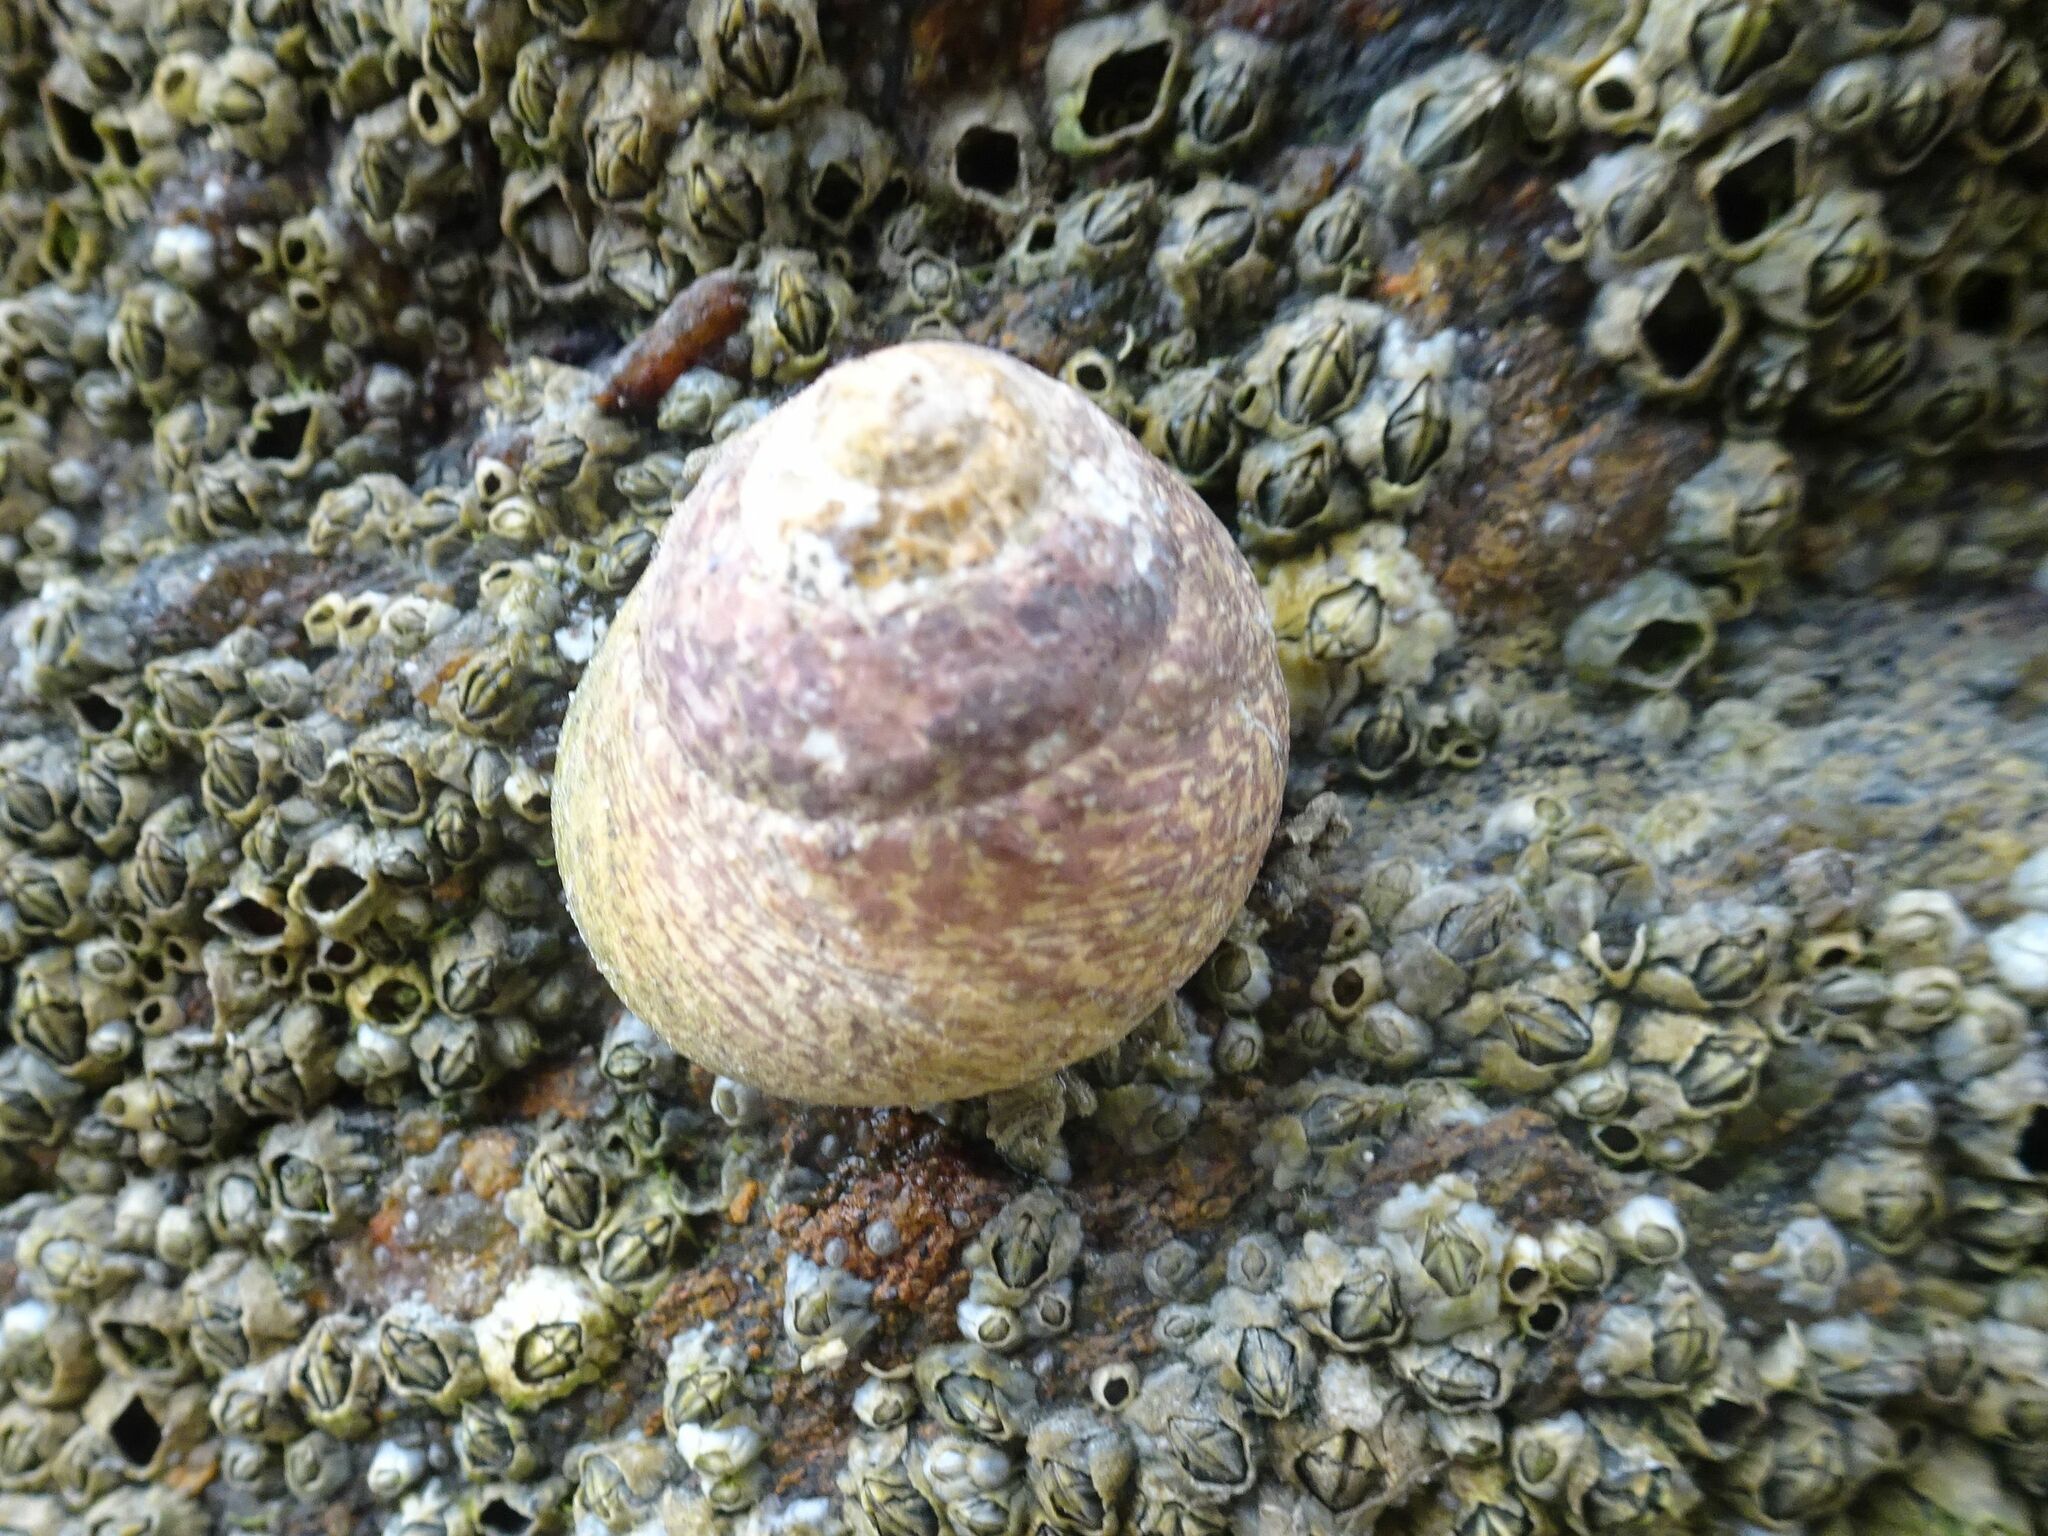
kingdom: Animalia
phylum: Mollusca
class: Gastropoda
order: Trochida
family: Trochidae
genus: Phorcus
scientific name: Phorcus lineatus
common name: Toothed top shell
